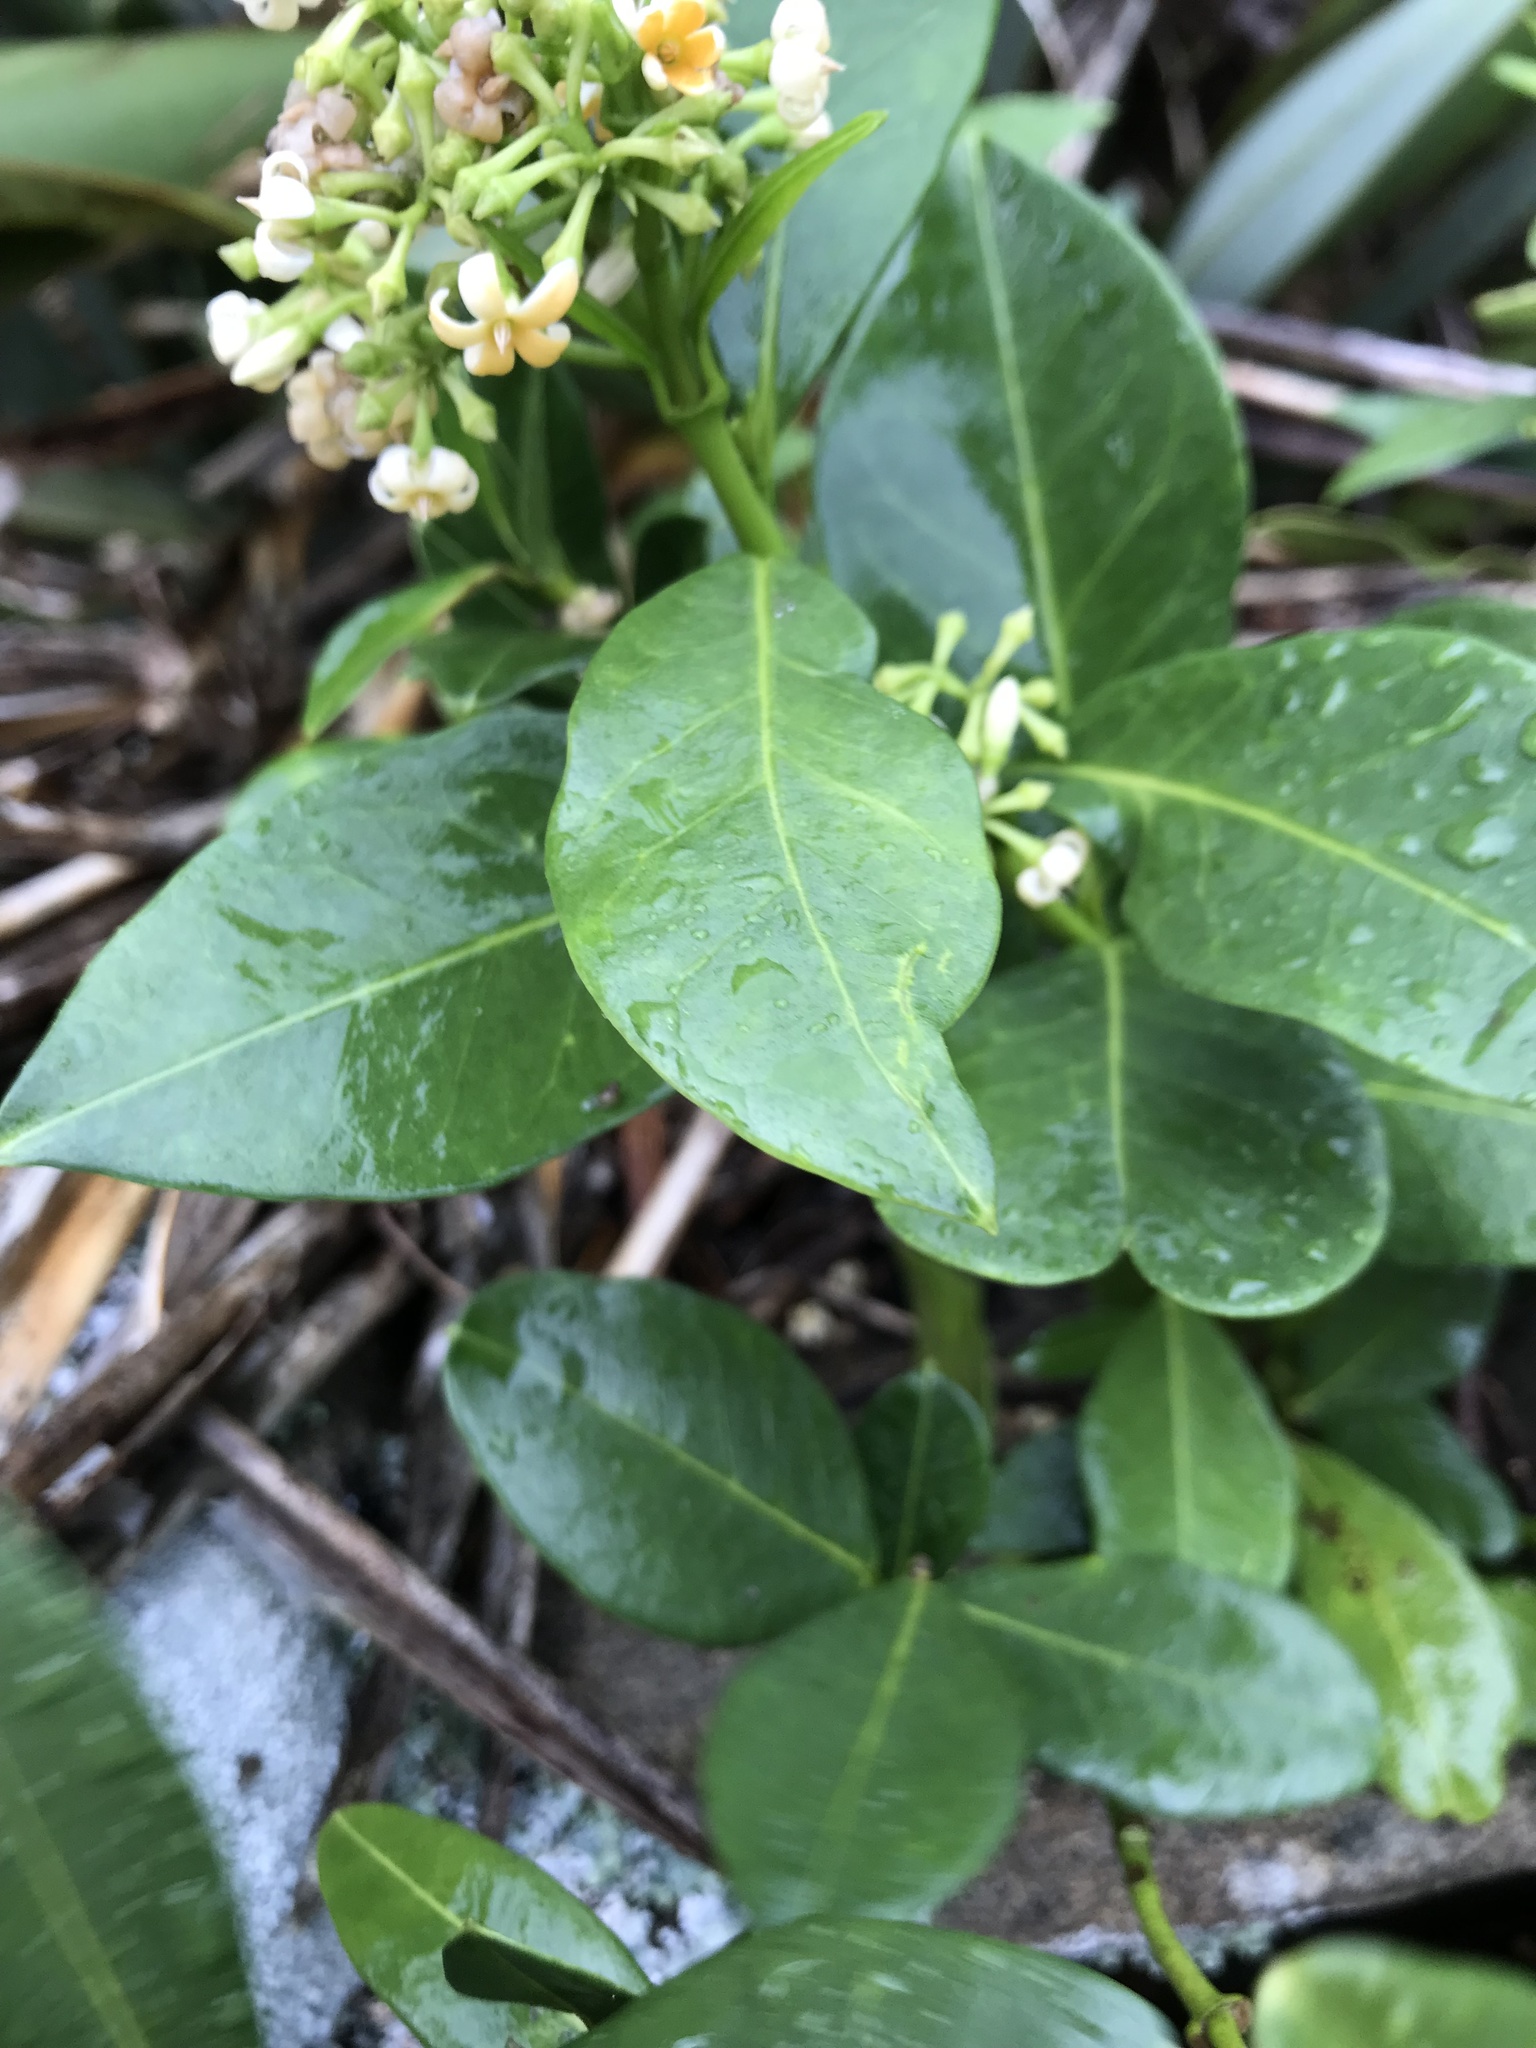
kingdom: Plantae
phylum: Tracheophyta
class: Magnoliopsida
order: Caryophyllales
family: Nyctaginaceae
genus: Ceodes
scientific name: Ceodes brunoniana
